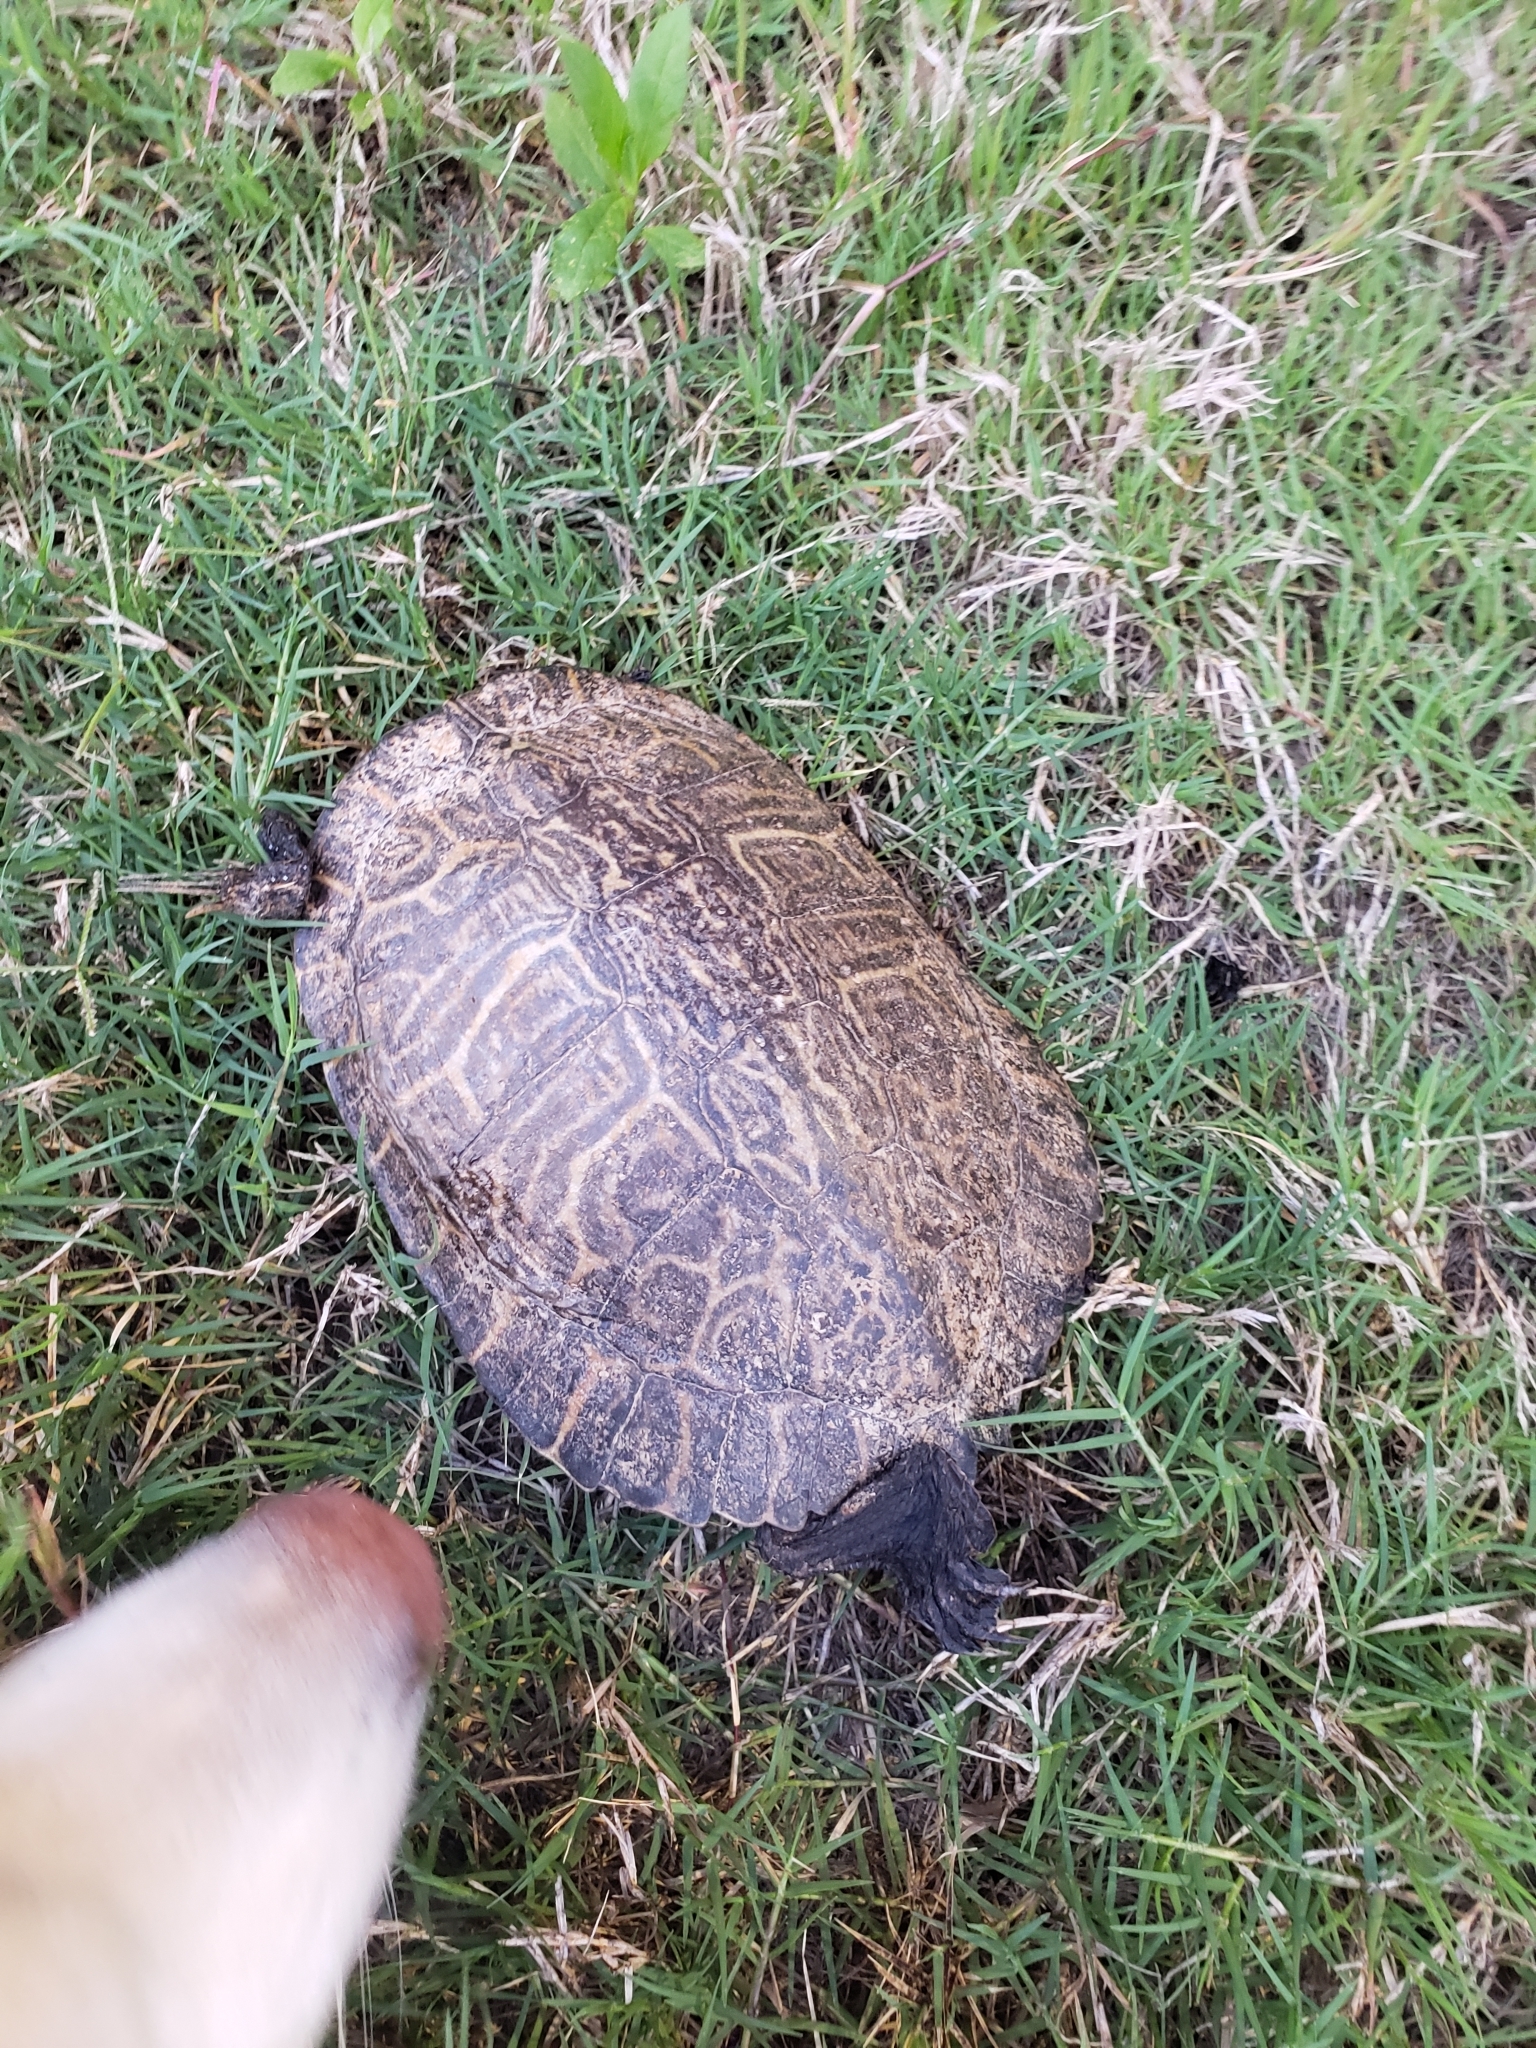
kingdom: Animalia
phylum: Chordata
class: Testudines
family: Emydidae
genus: Pseudemys
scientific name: Pseudemys concinna
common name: Eastern river cooter
